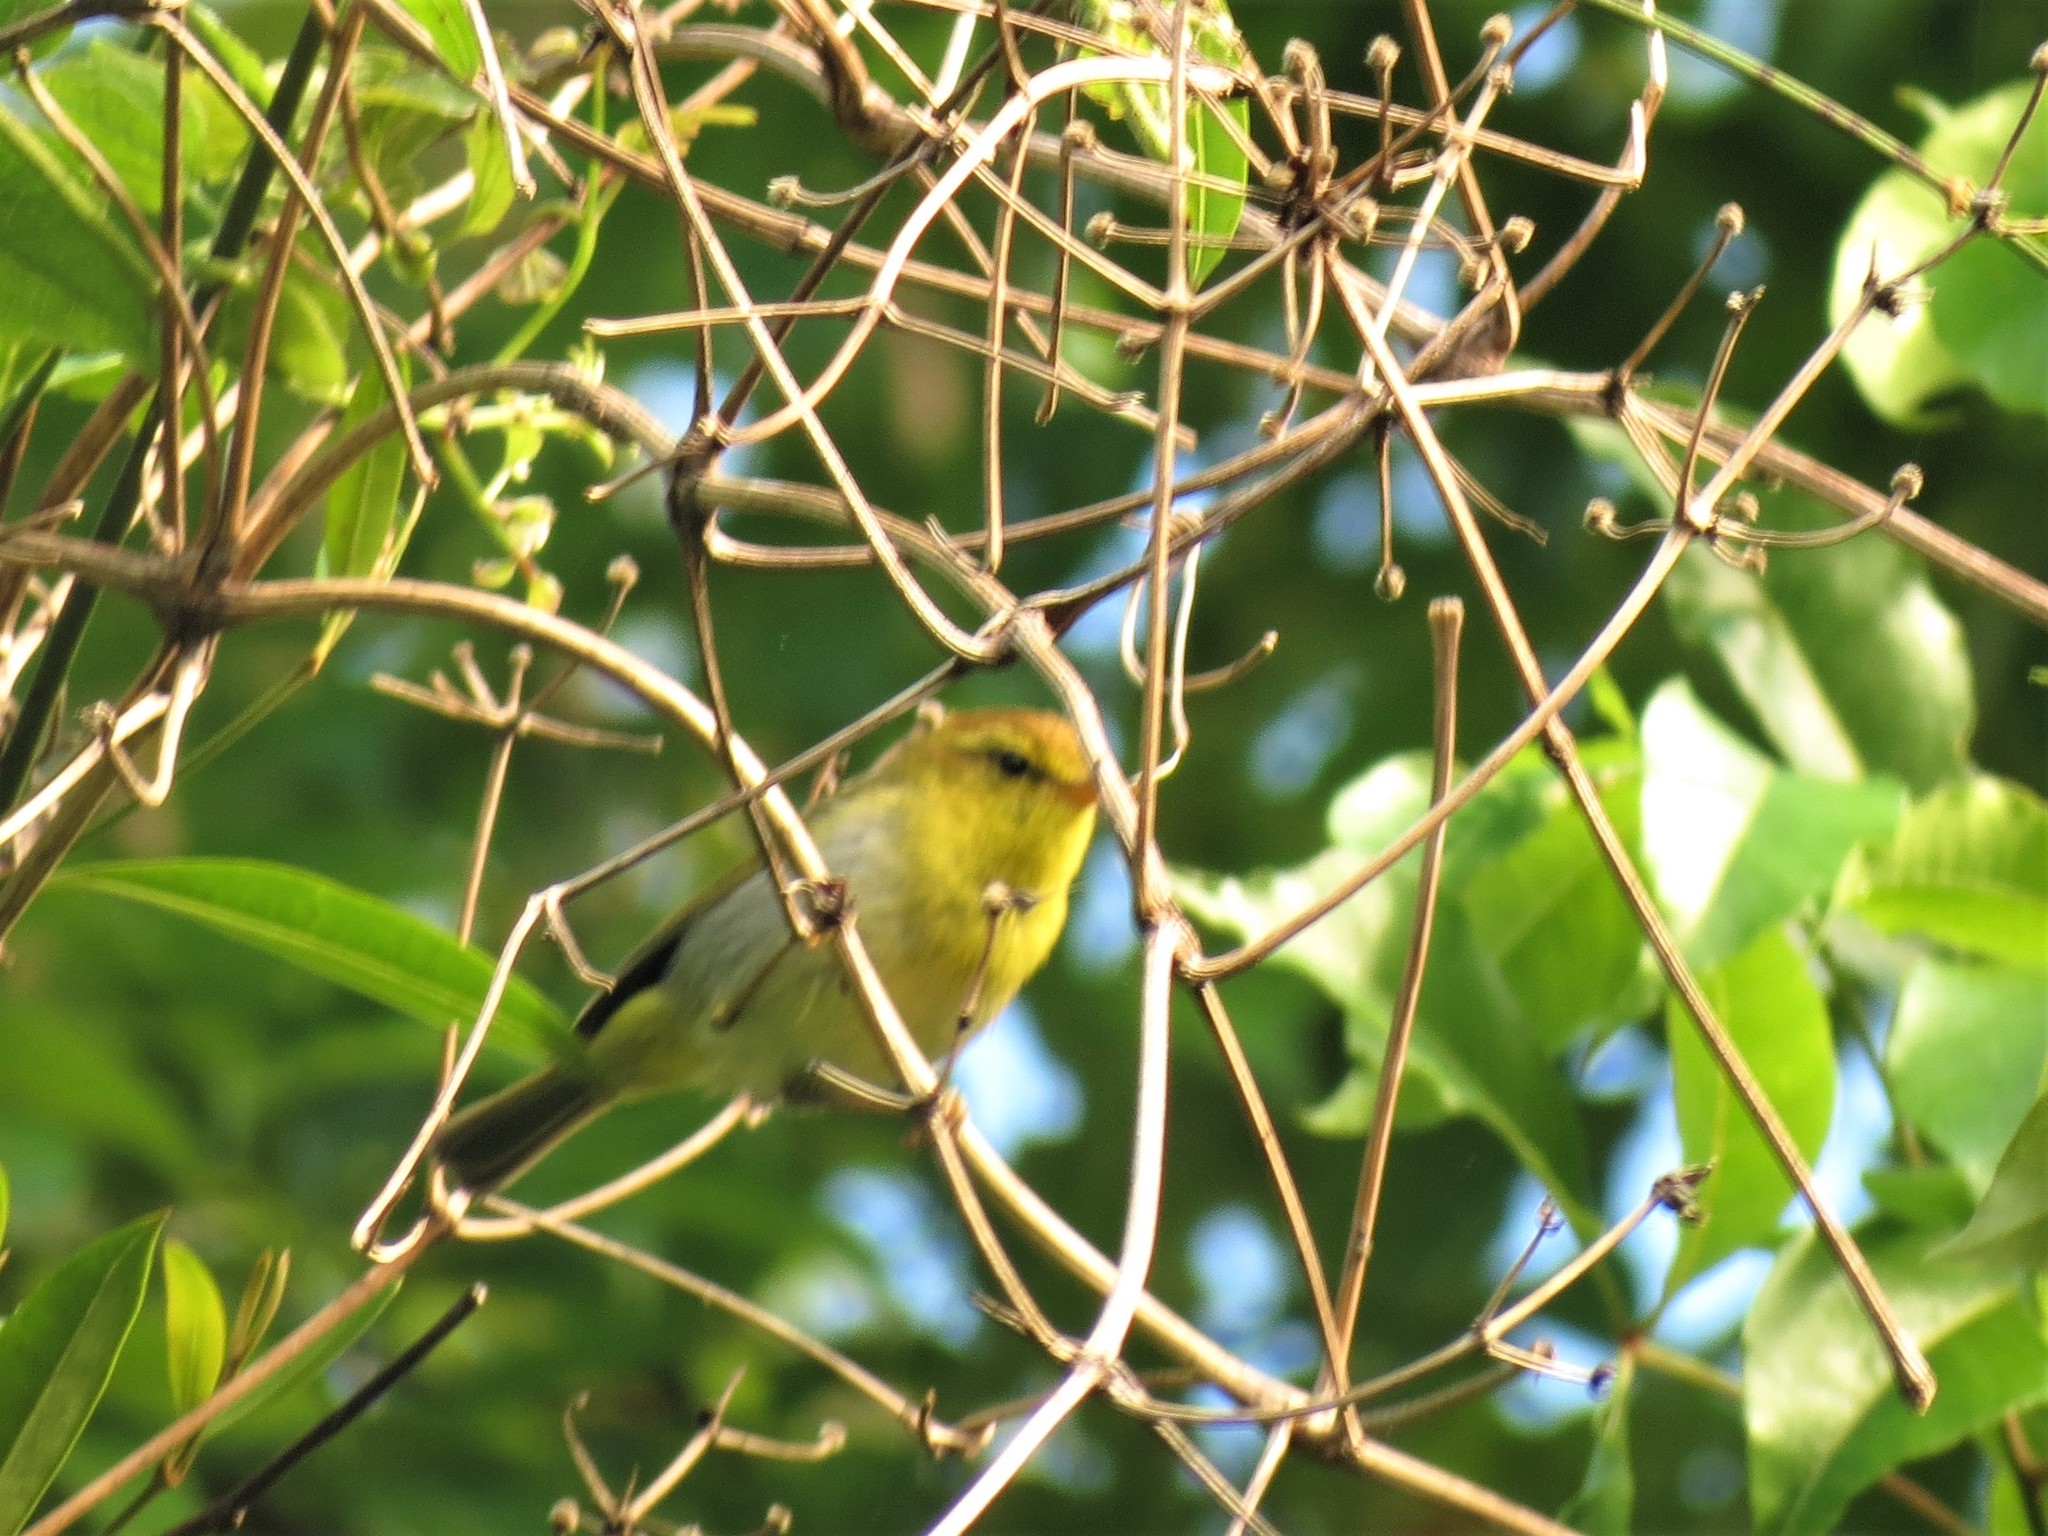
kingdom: Animalia
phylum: Chordata
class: Aves
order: Passeriformes
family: Phylloscopidae
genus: Phylloscopus
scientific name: Phylloscopus ruficapilla
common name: Yellow-throated woodland warbler
